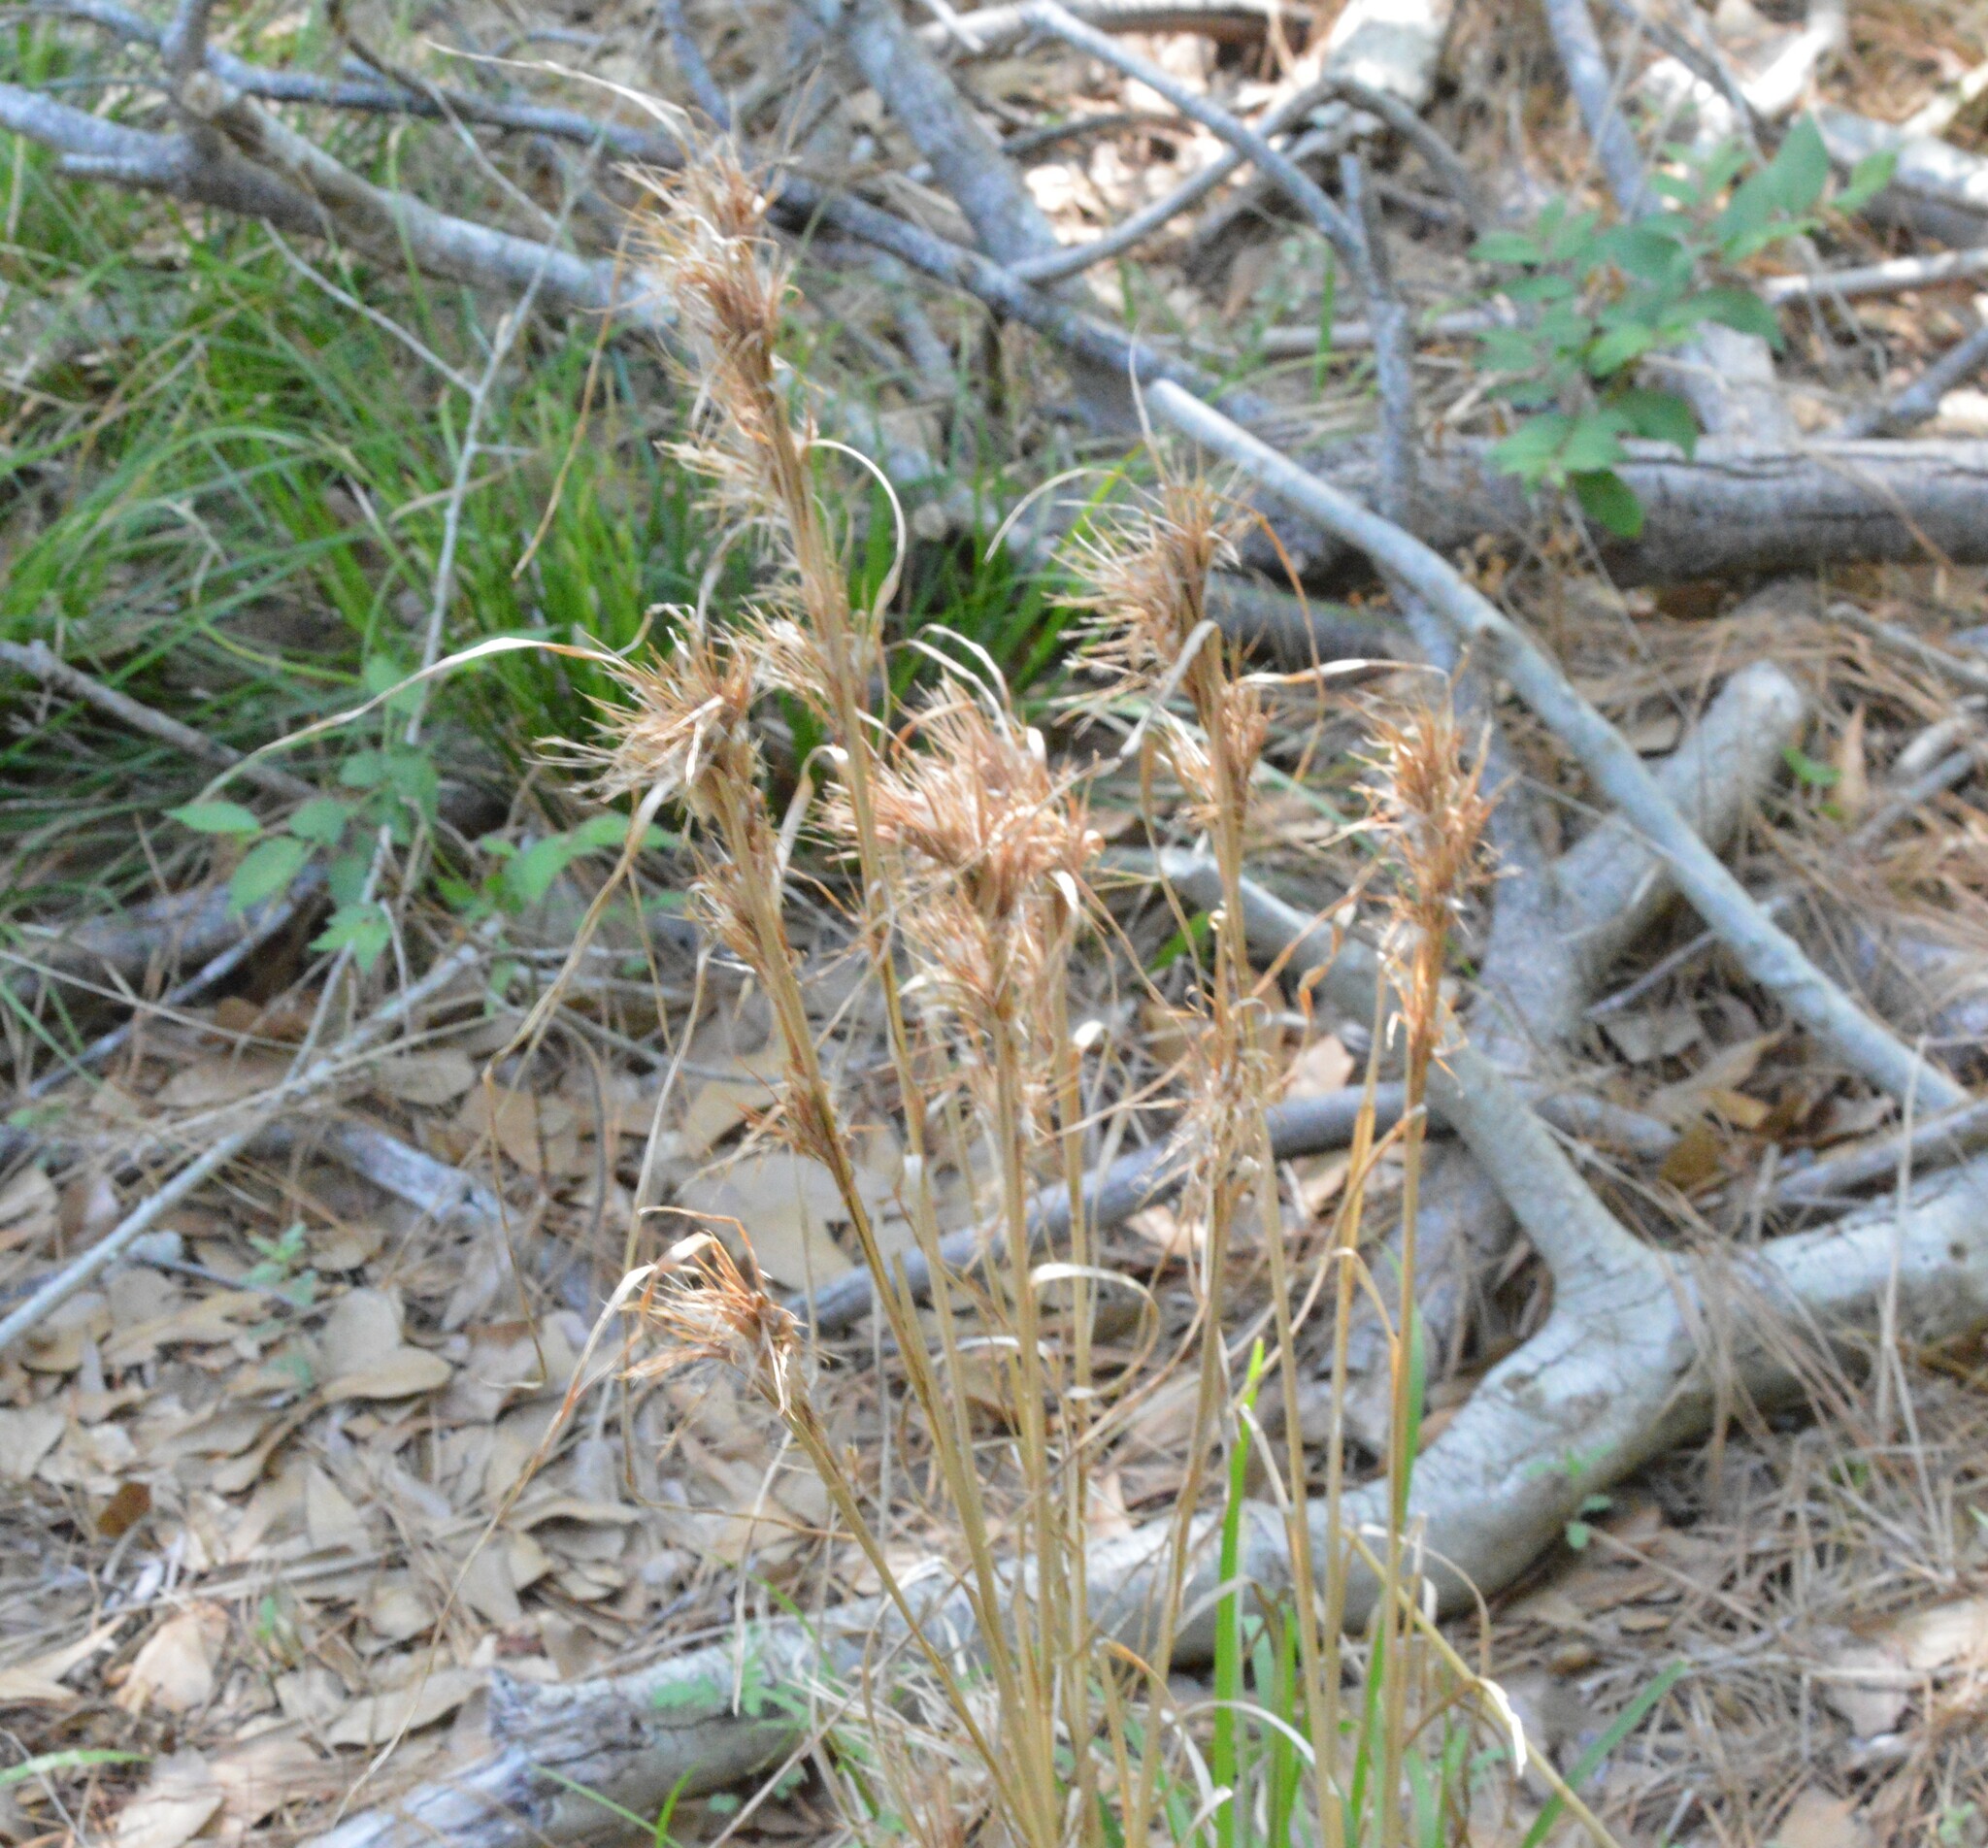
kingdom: Plantae
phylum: Tracheophyta
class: Liliopsida
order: Poales
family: Poaceae
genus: Andropogon
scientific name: Andropogon tenuispatheus
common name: Bushy bluestem
